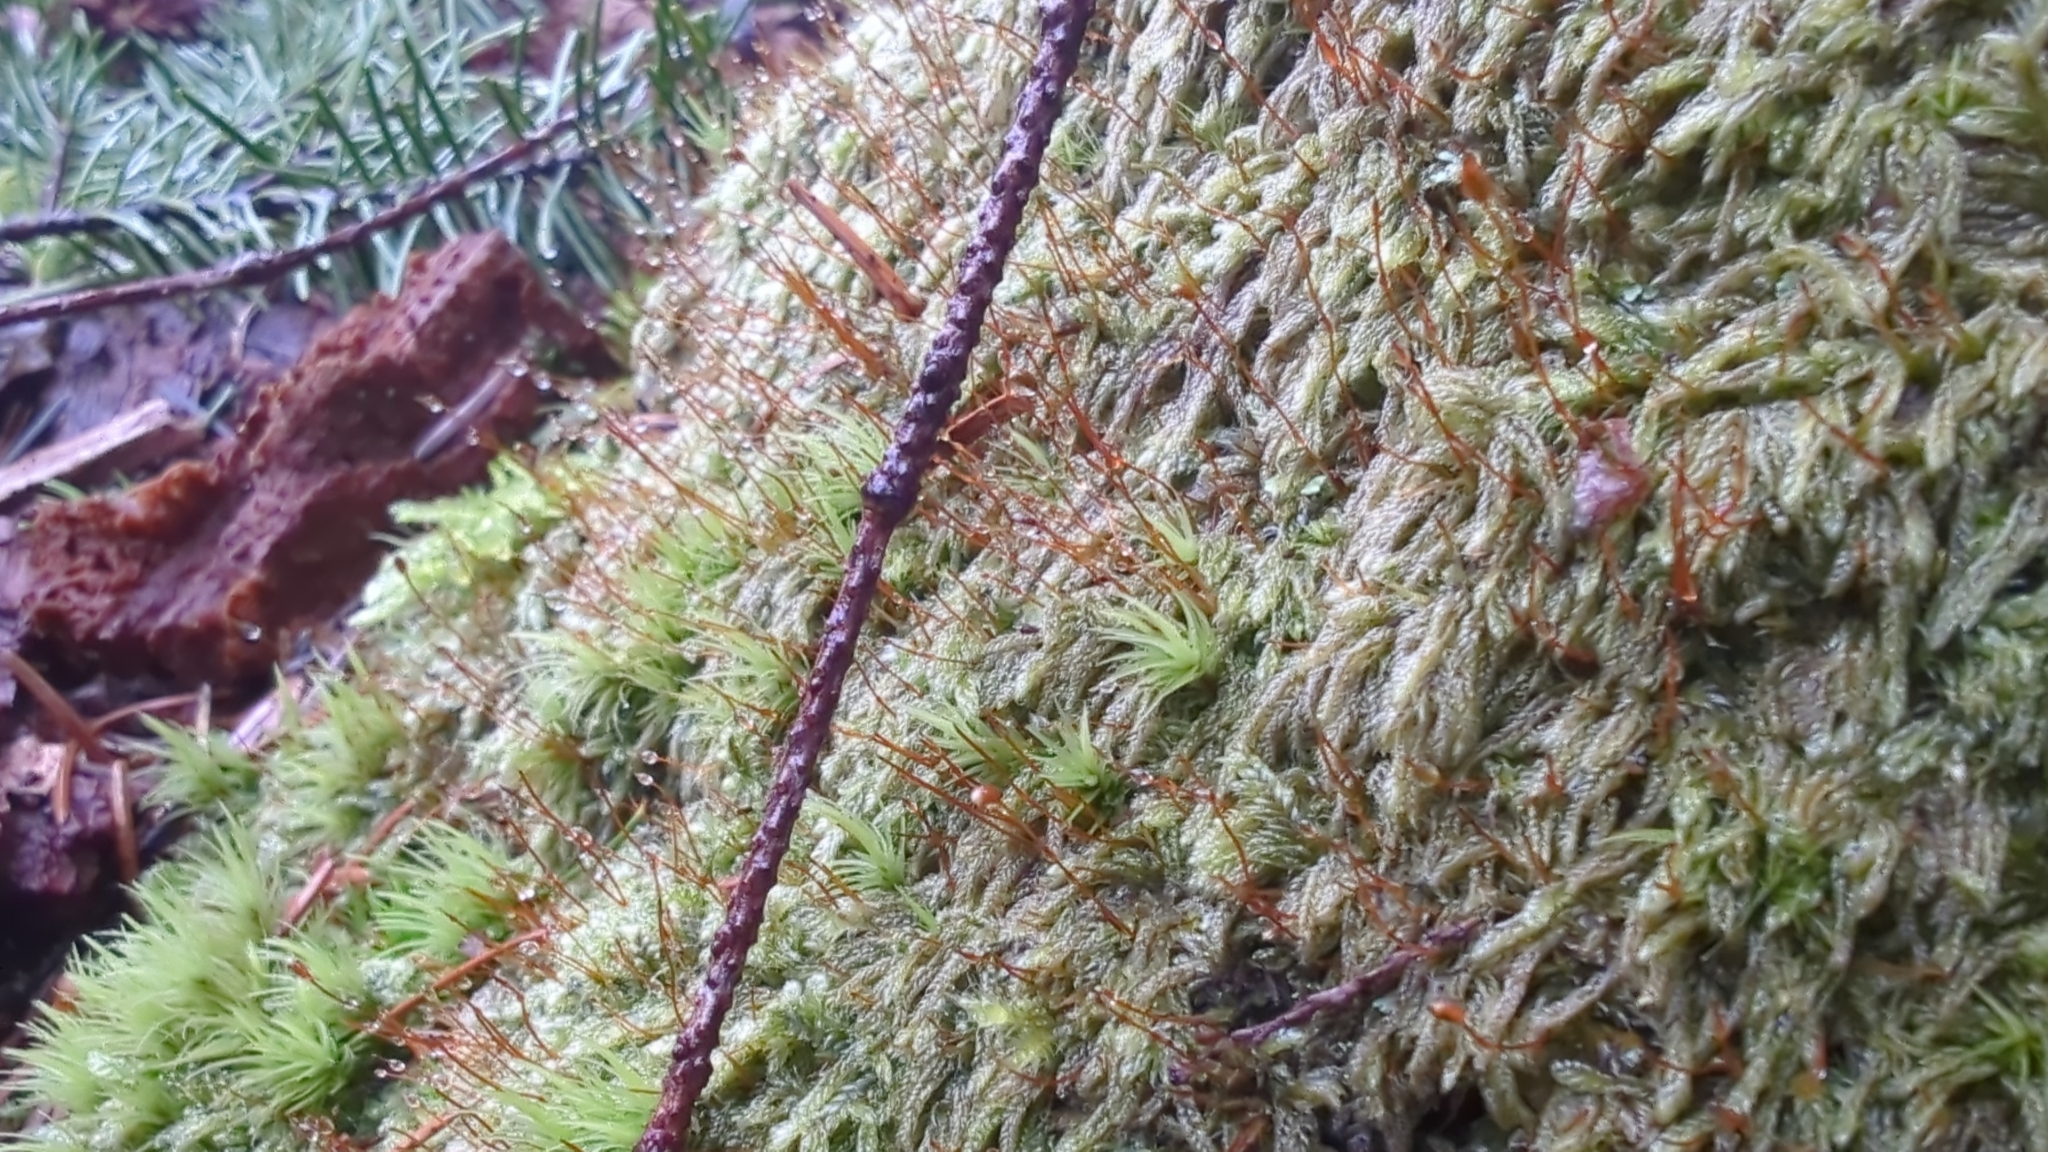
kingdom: Plantae
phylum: Bryophyta
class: Bryopsida
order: Hypnales
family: Pylaisiadelphaceae
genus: Trochophyllohypnum
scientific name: Trochophyllohypnum circinale
